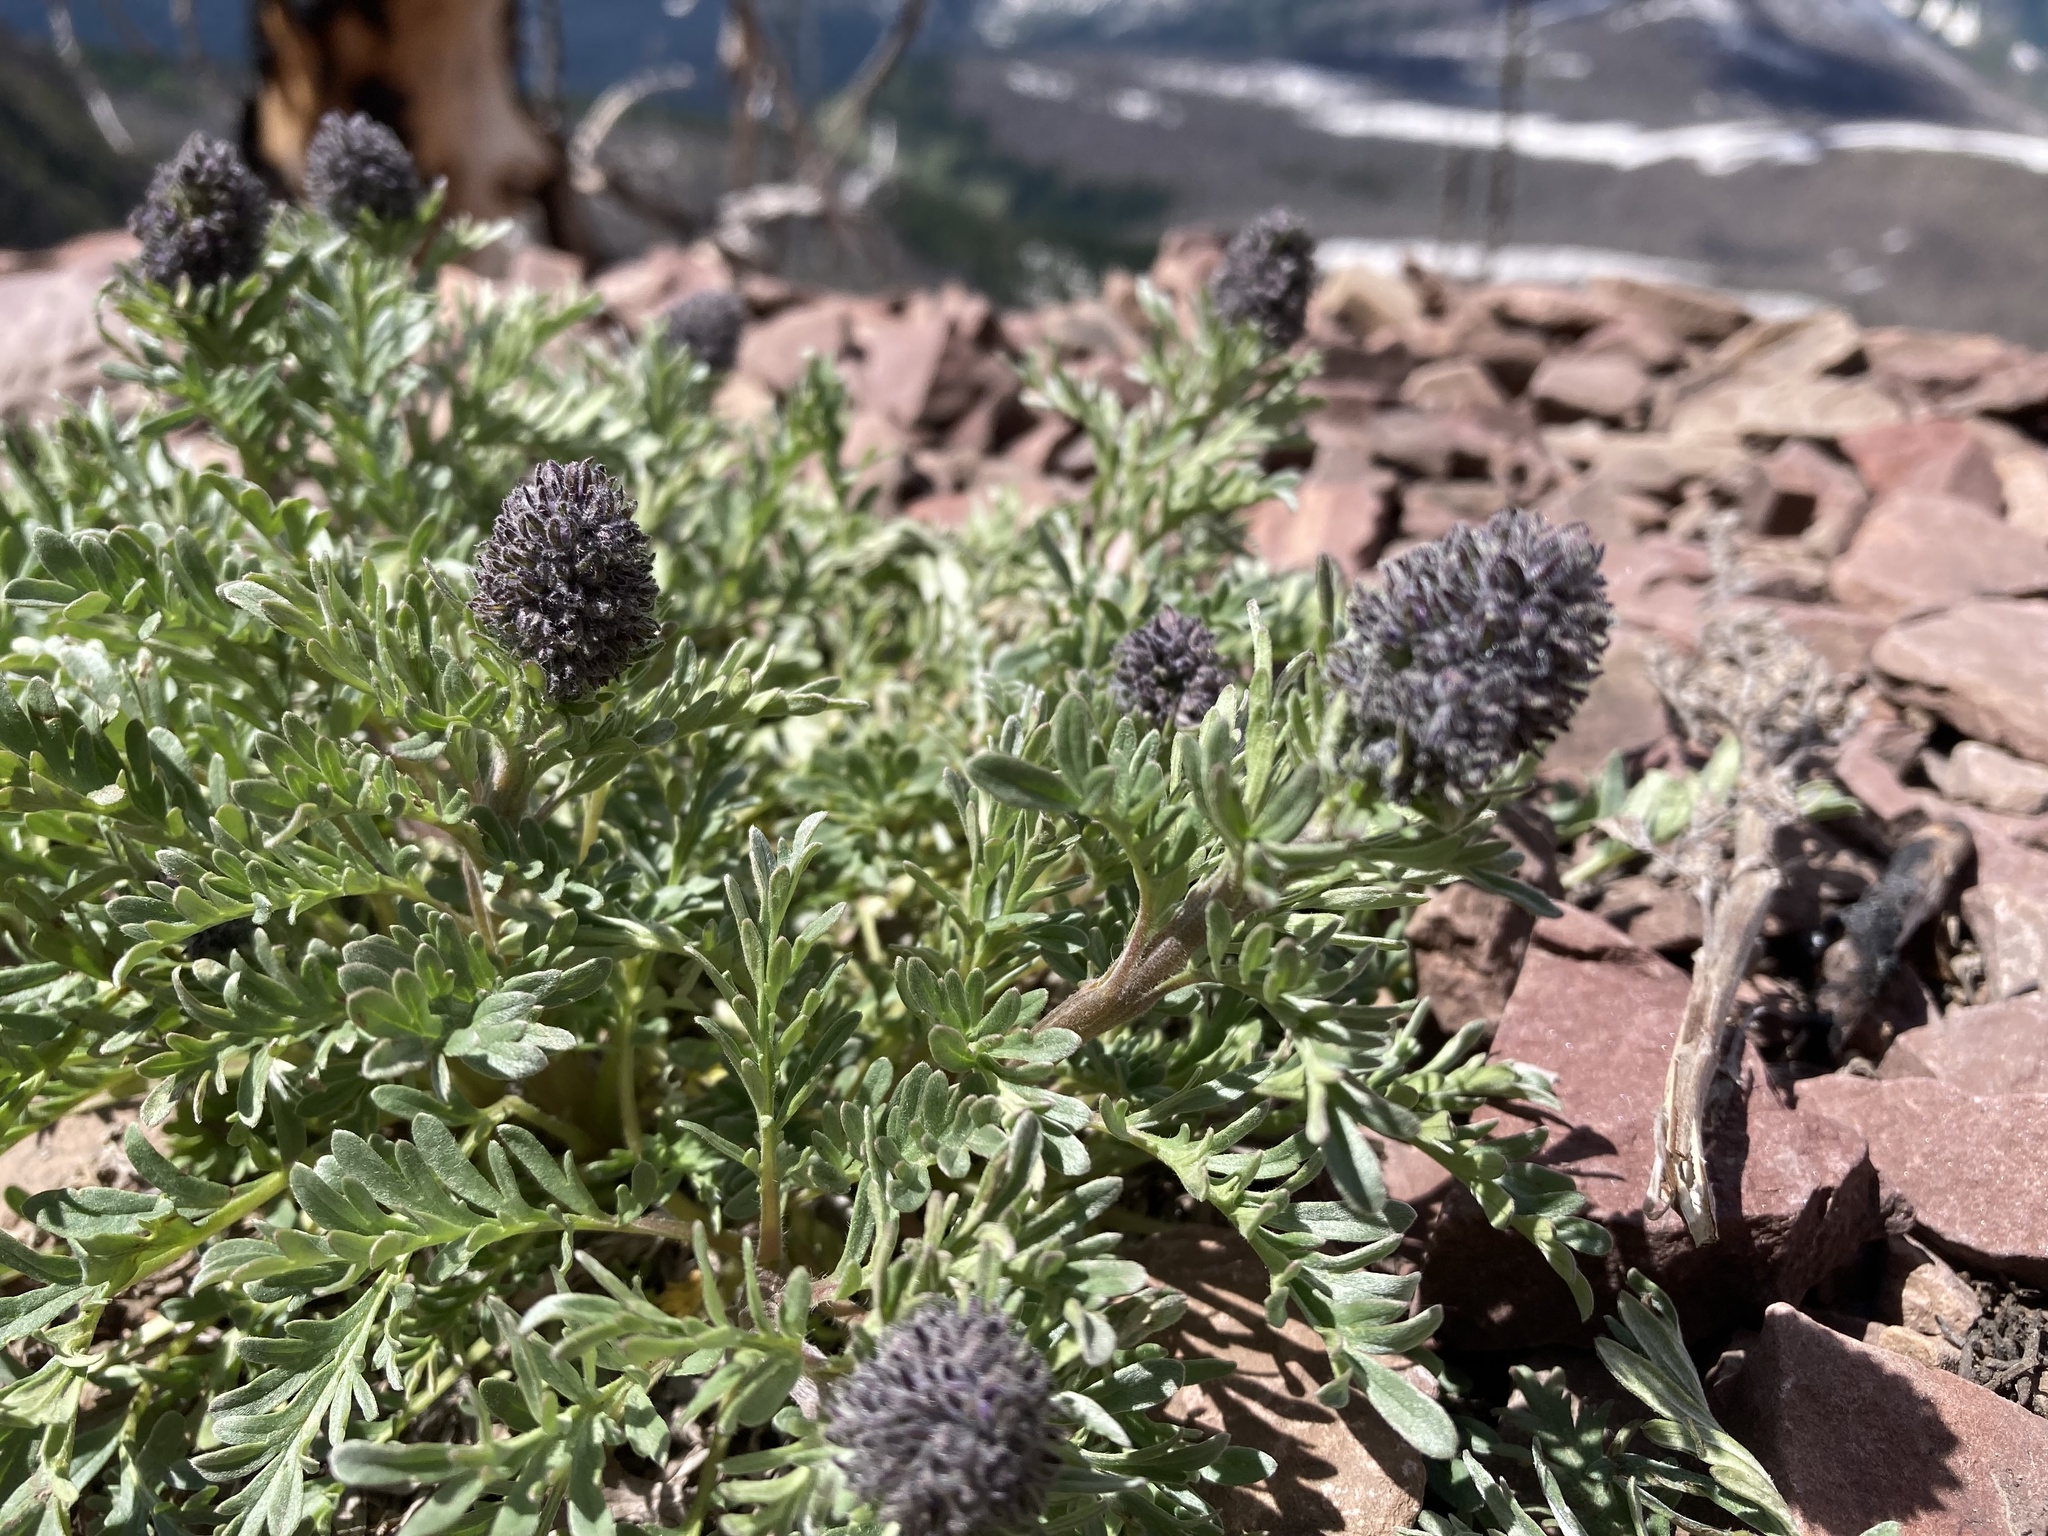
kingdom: Plantae
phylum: Tracheophyta
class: Magnoliopsida
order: Boraginales
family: Hydrophyllaceae
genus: Phacelia
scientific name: Phacelia sericea
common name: Silky phacelia
